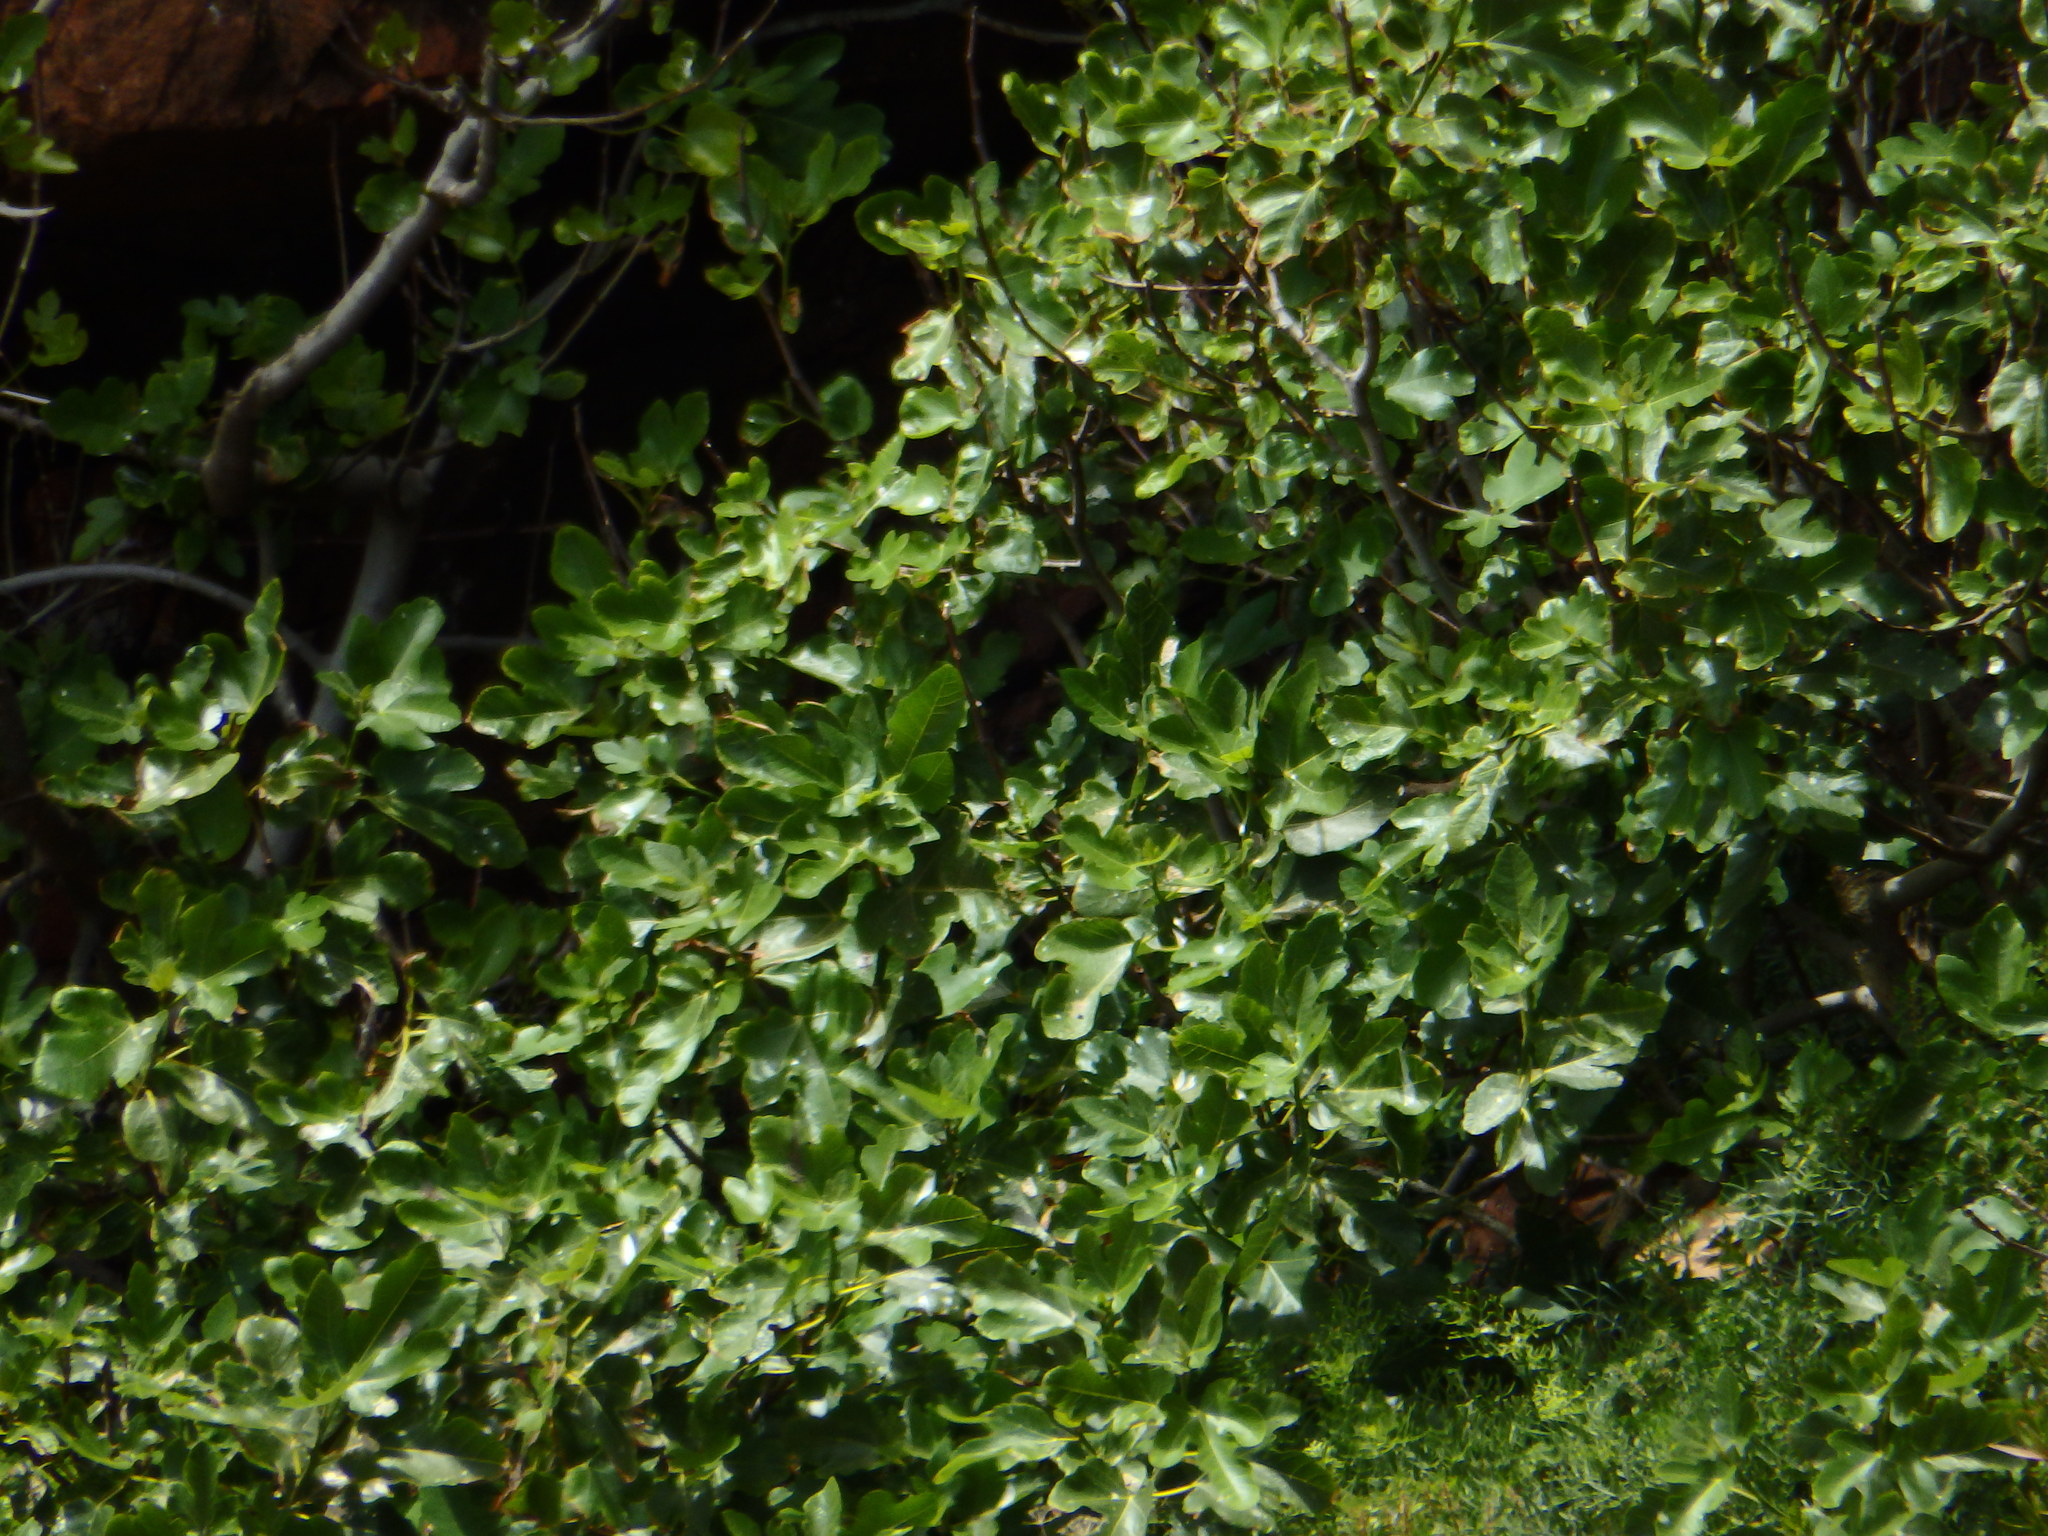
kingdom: Plantae
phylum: Tracheophyta
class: Magnoliopsida
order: Rosales
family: Moraceae
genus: Ficus
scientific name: Ficus carica
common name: Fig
